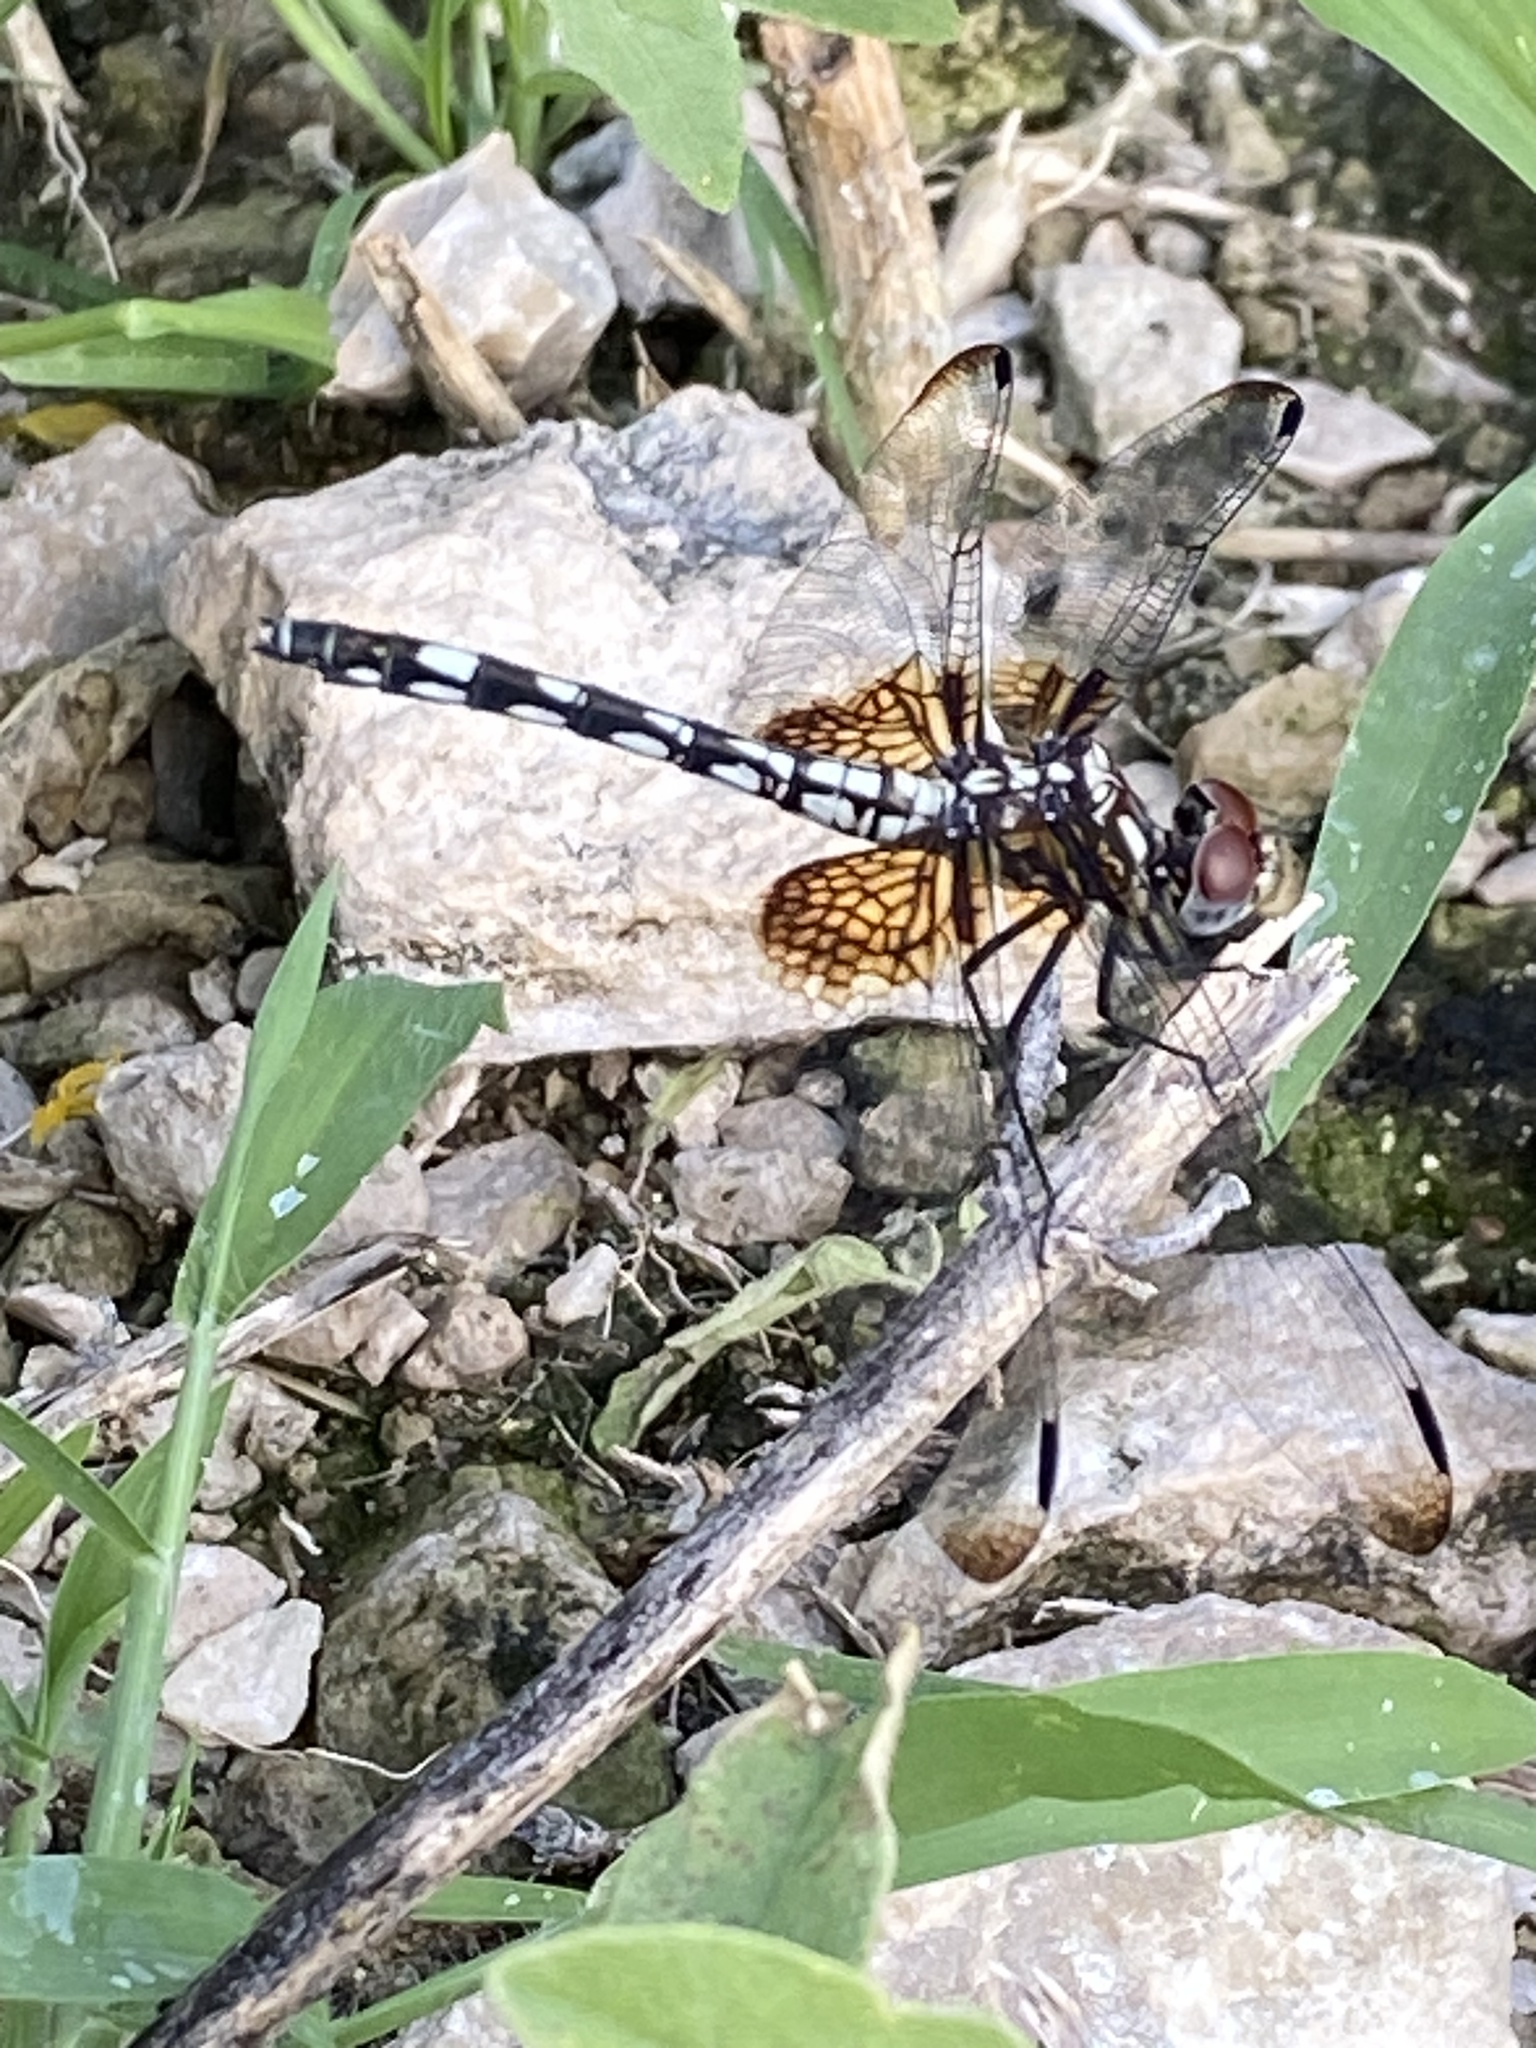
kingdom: Animalia
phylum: Arthropoda
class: Insecta
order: Odonata
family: Libellulidae
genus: Dythemis
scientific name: Dythemis fugax
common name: Checkered setwing
